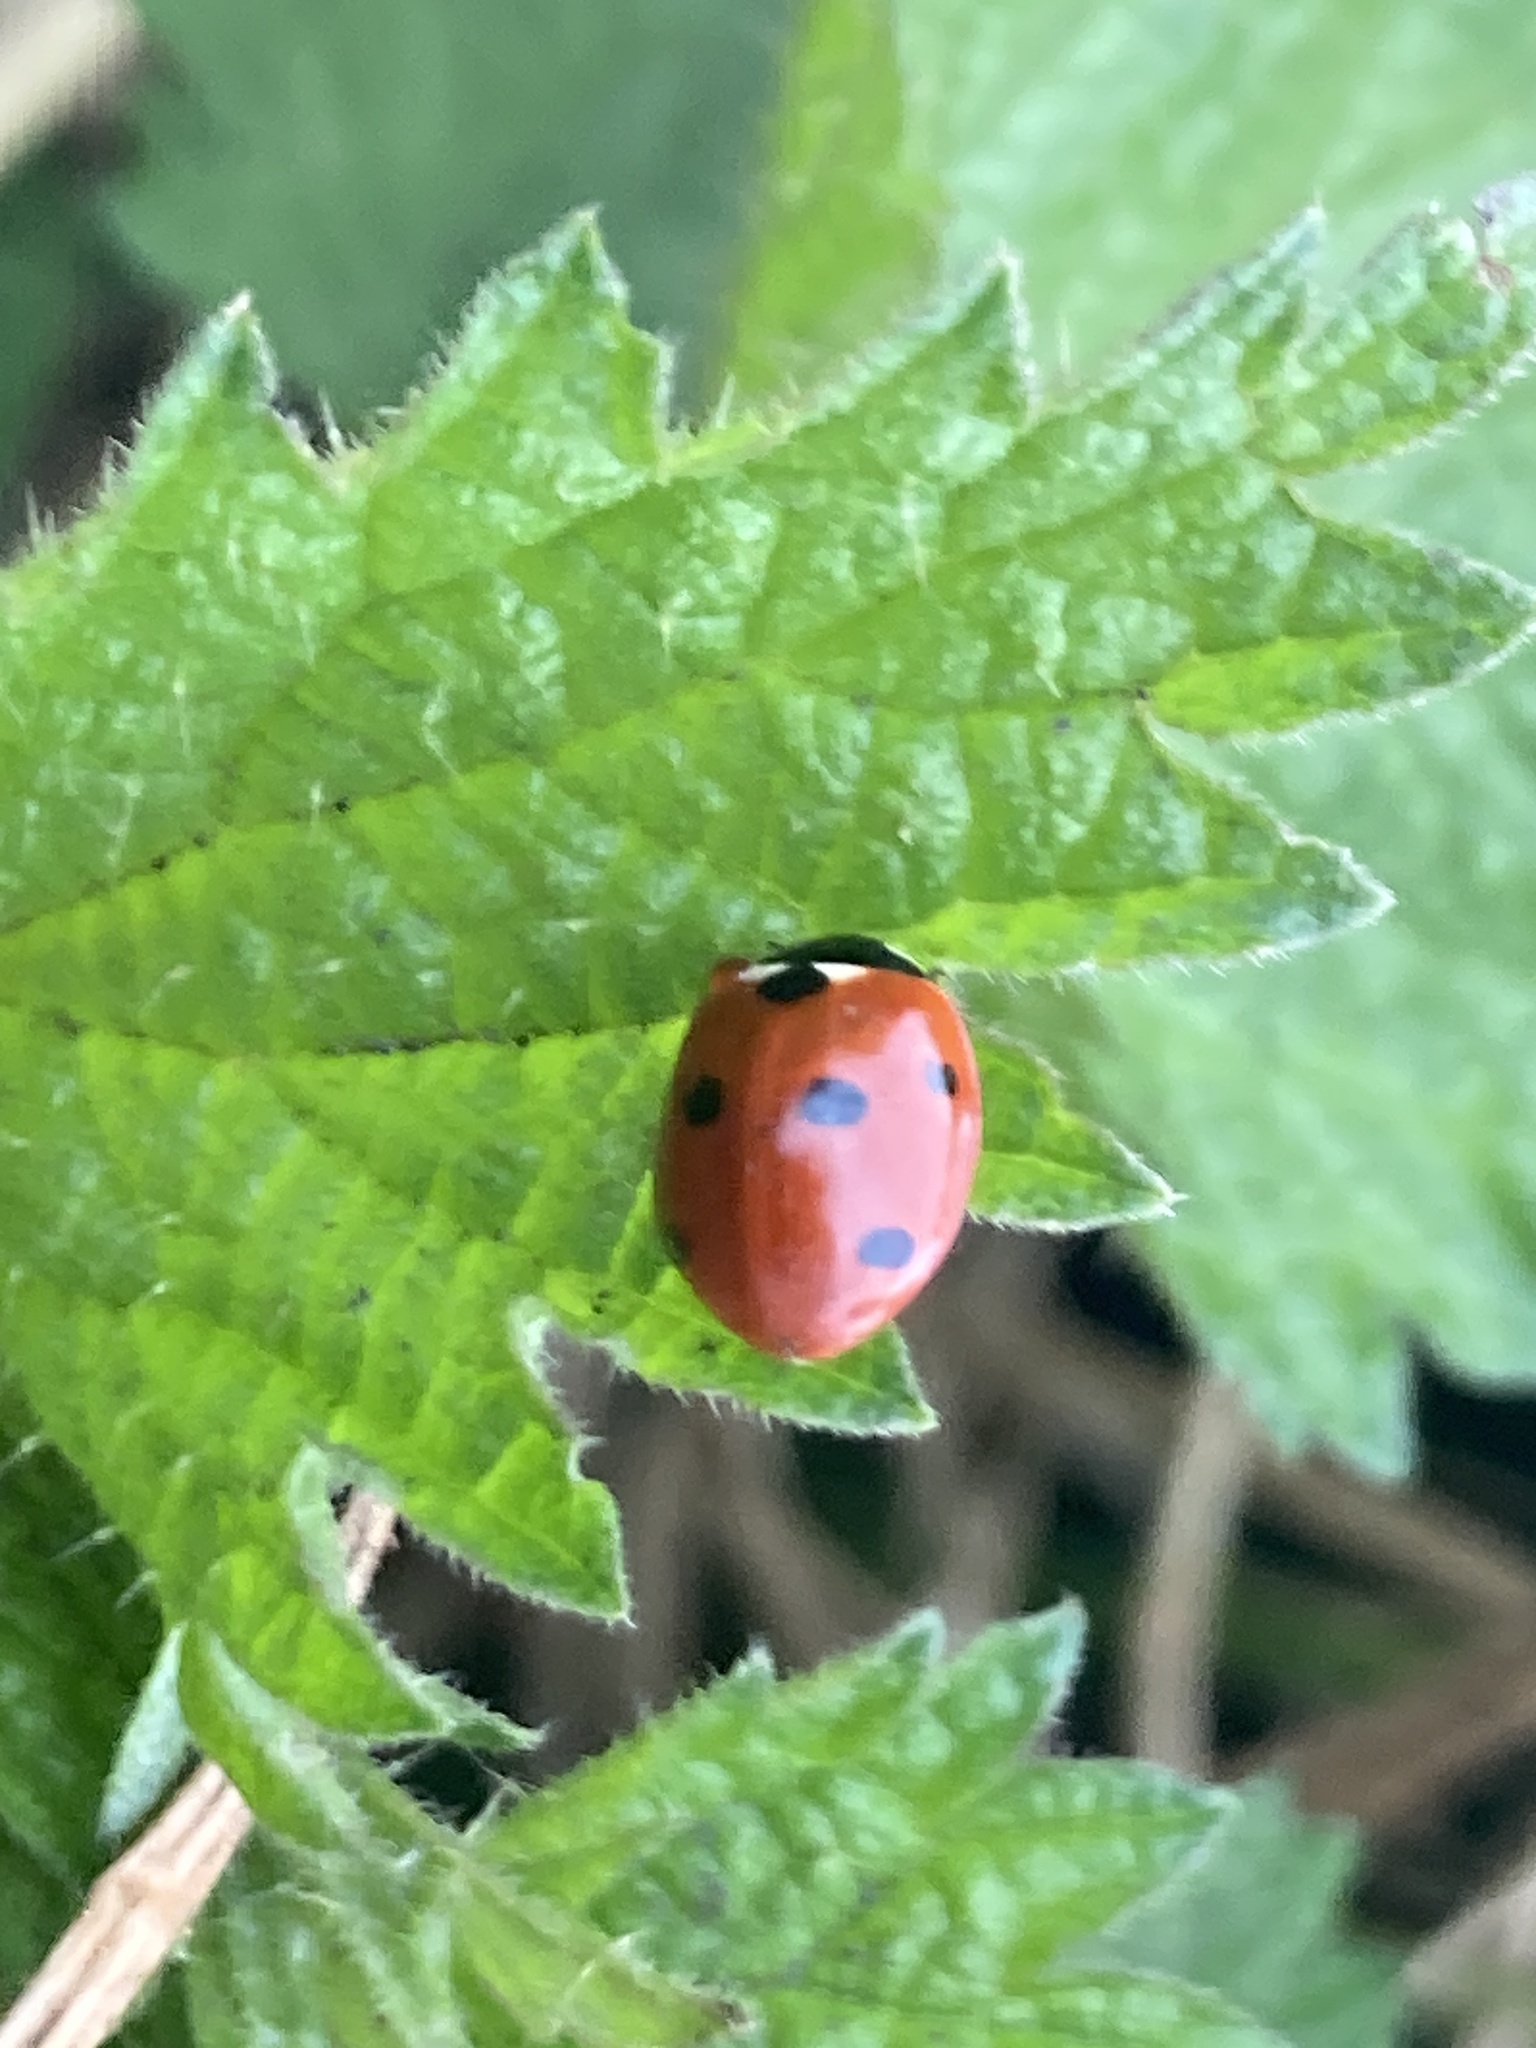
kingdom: Animalia
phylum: Arthropoda
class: Insecta
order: Coleoptera
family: Coccinellidae
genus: Coccinella
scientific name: Coccinella septempunctata
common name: Sevenspotted lady beetle
